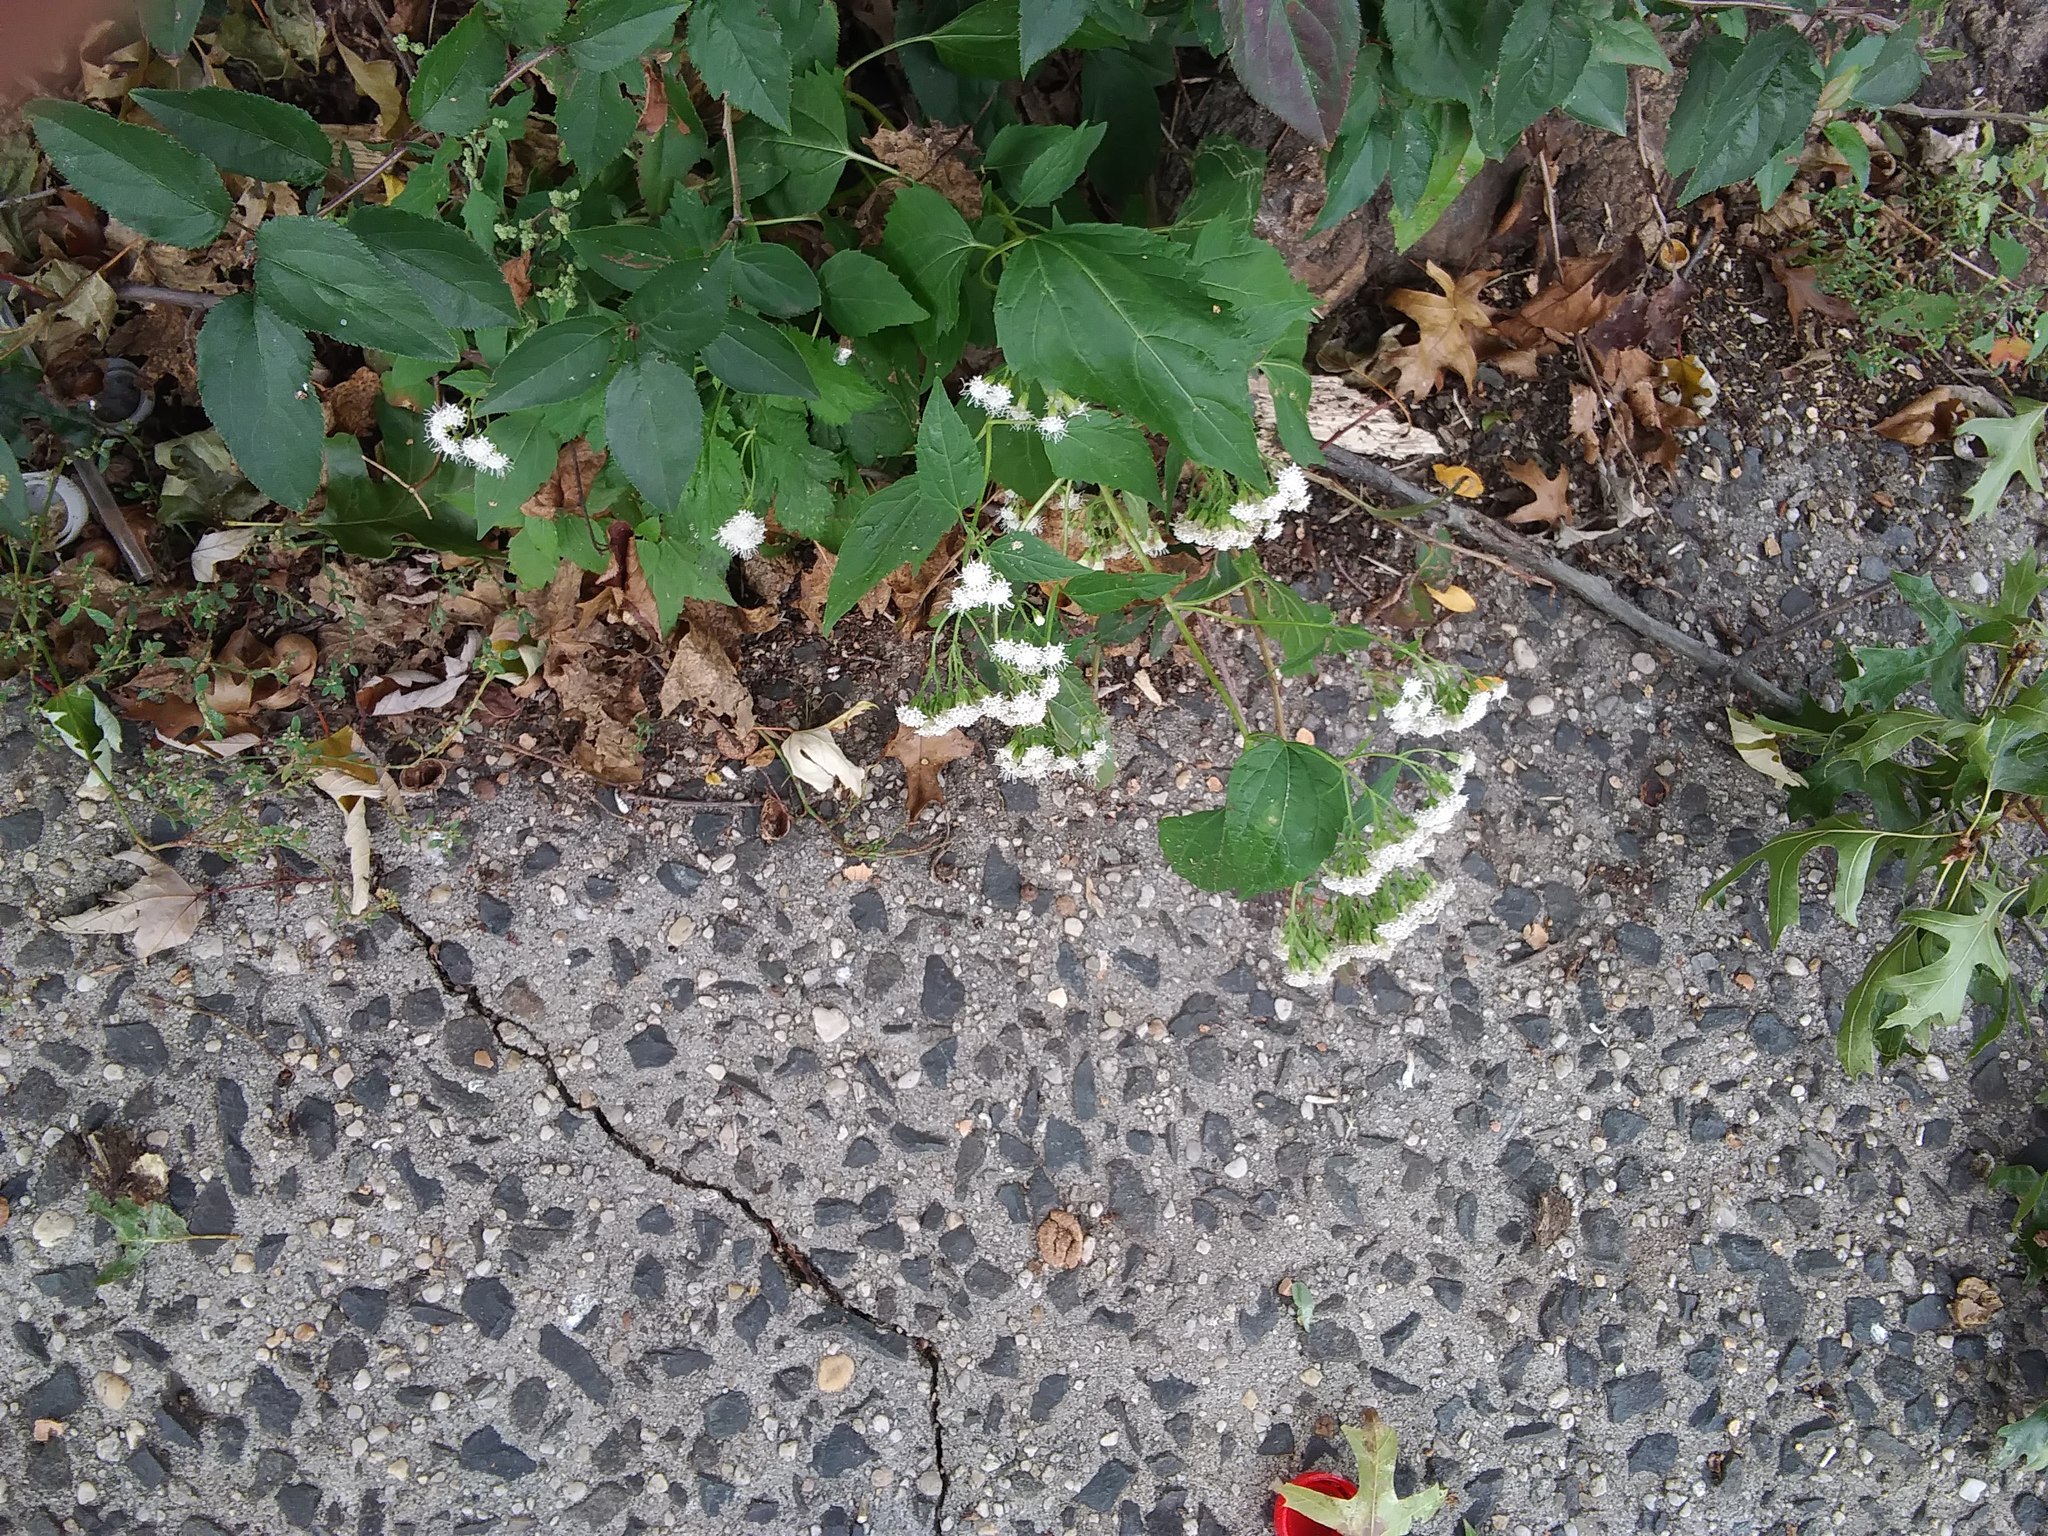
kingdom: Plantae
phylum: Tracheophyta
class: Magnoliopsida
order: Asterales
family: Asteraceae
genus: Ageratina
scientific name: Ageratina altissima
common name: White snakeroot
